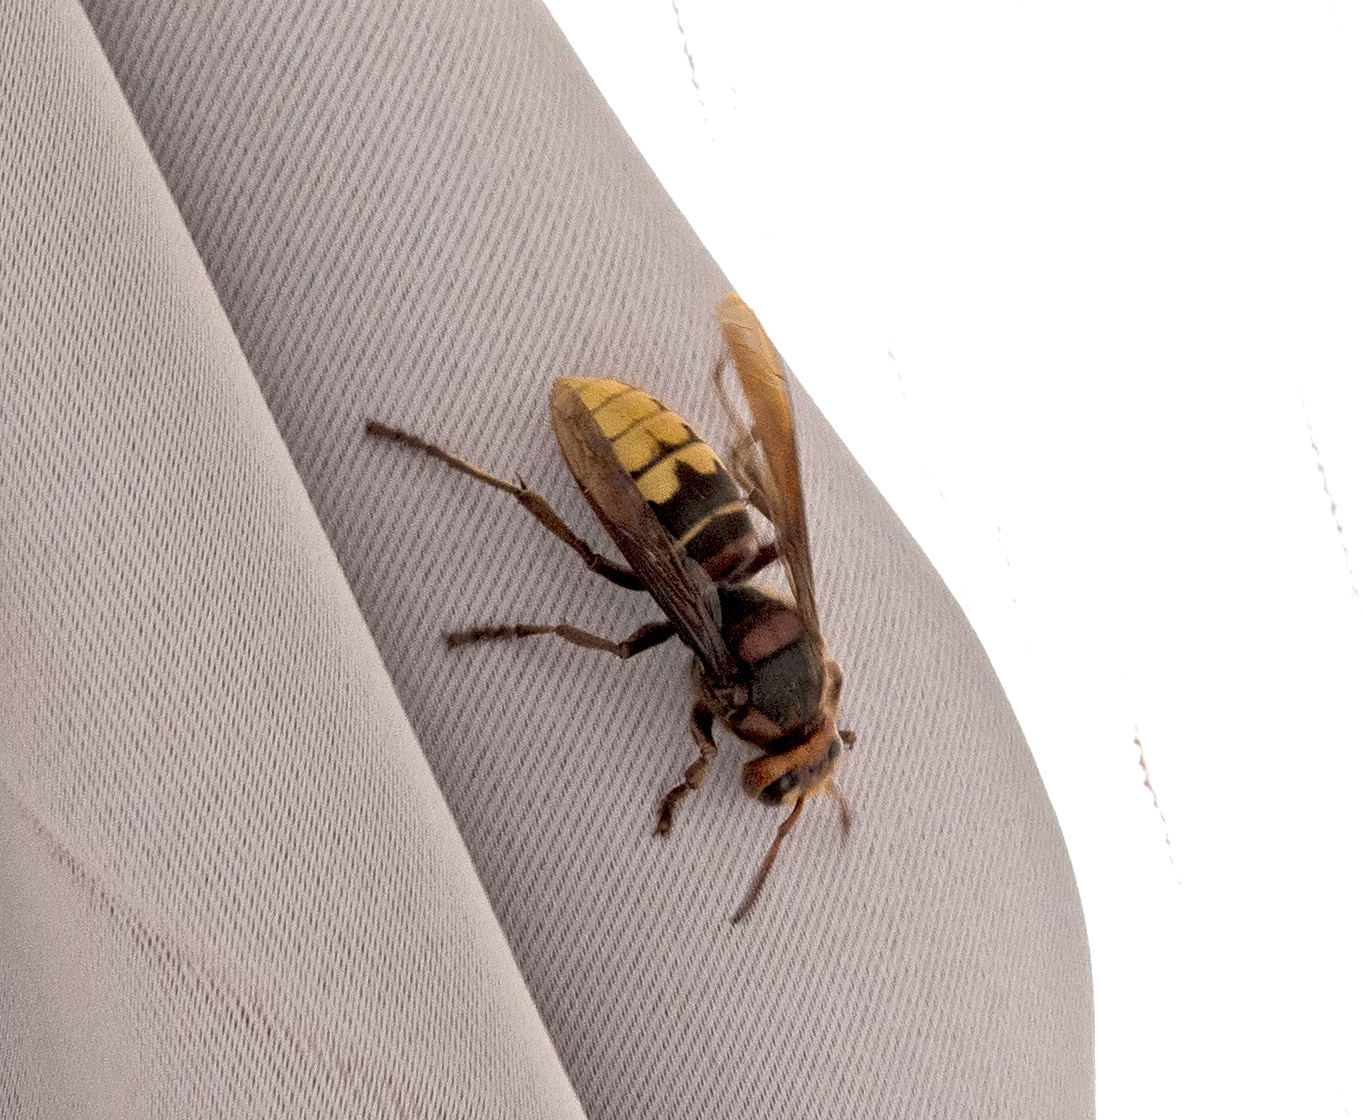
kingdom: Animalia
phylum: Arthropoda
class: Insecta
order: Hymenoptera
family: Vespidae
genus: Vespa
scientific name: Vespa crabro
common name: Hornet
